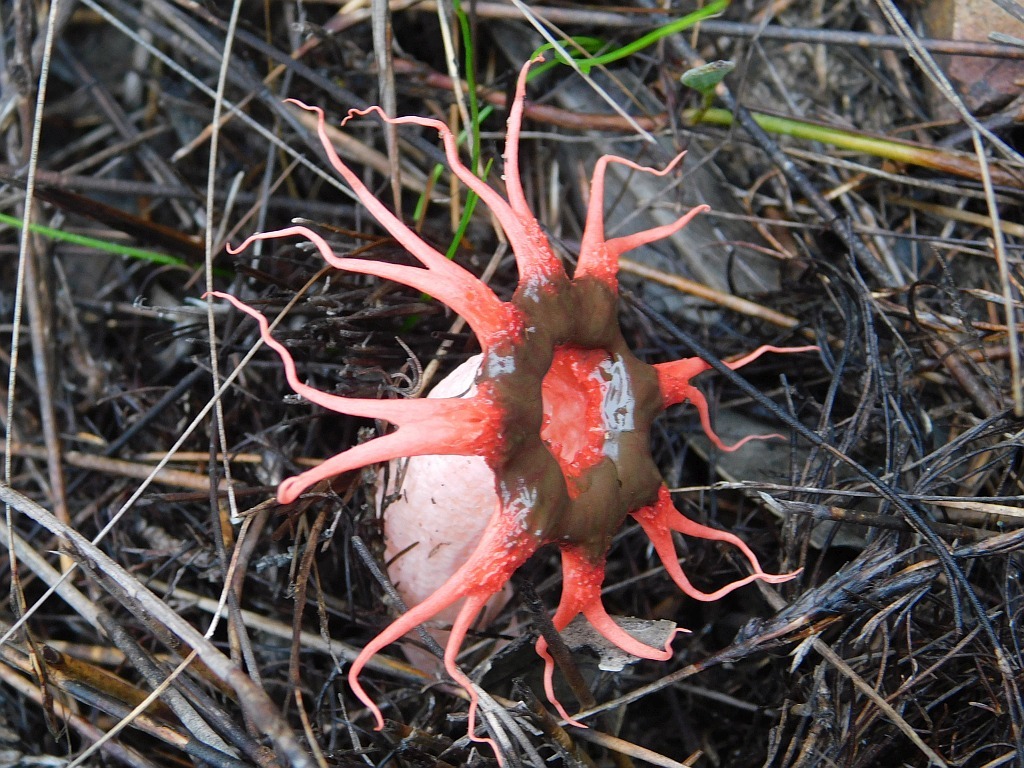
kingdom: Fungi
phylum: Basidiomycota
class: Agaricomycetes
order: Phallales
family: Phallaceae
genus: Aseroe
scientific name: Aseroe rubra
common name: Starfish fungus
